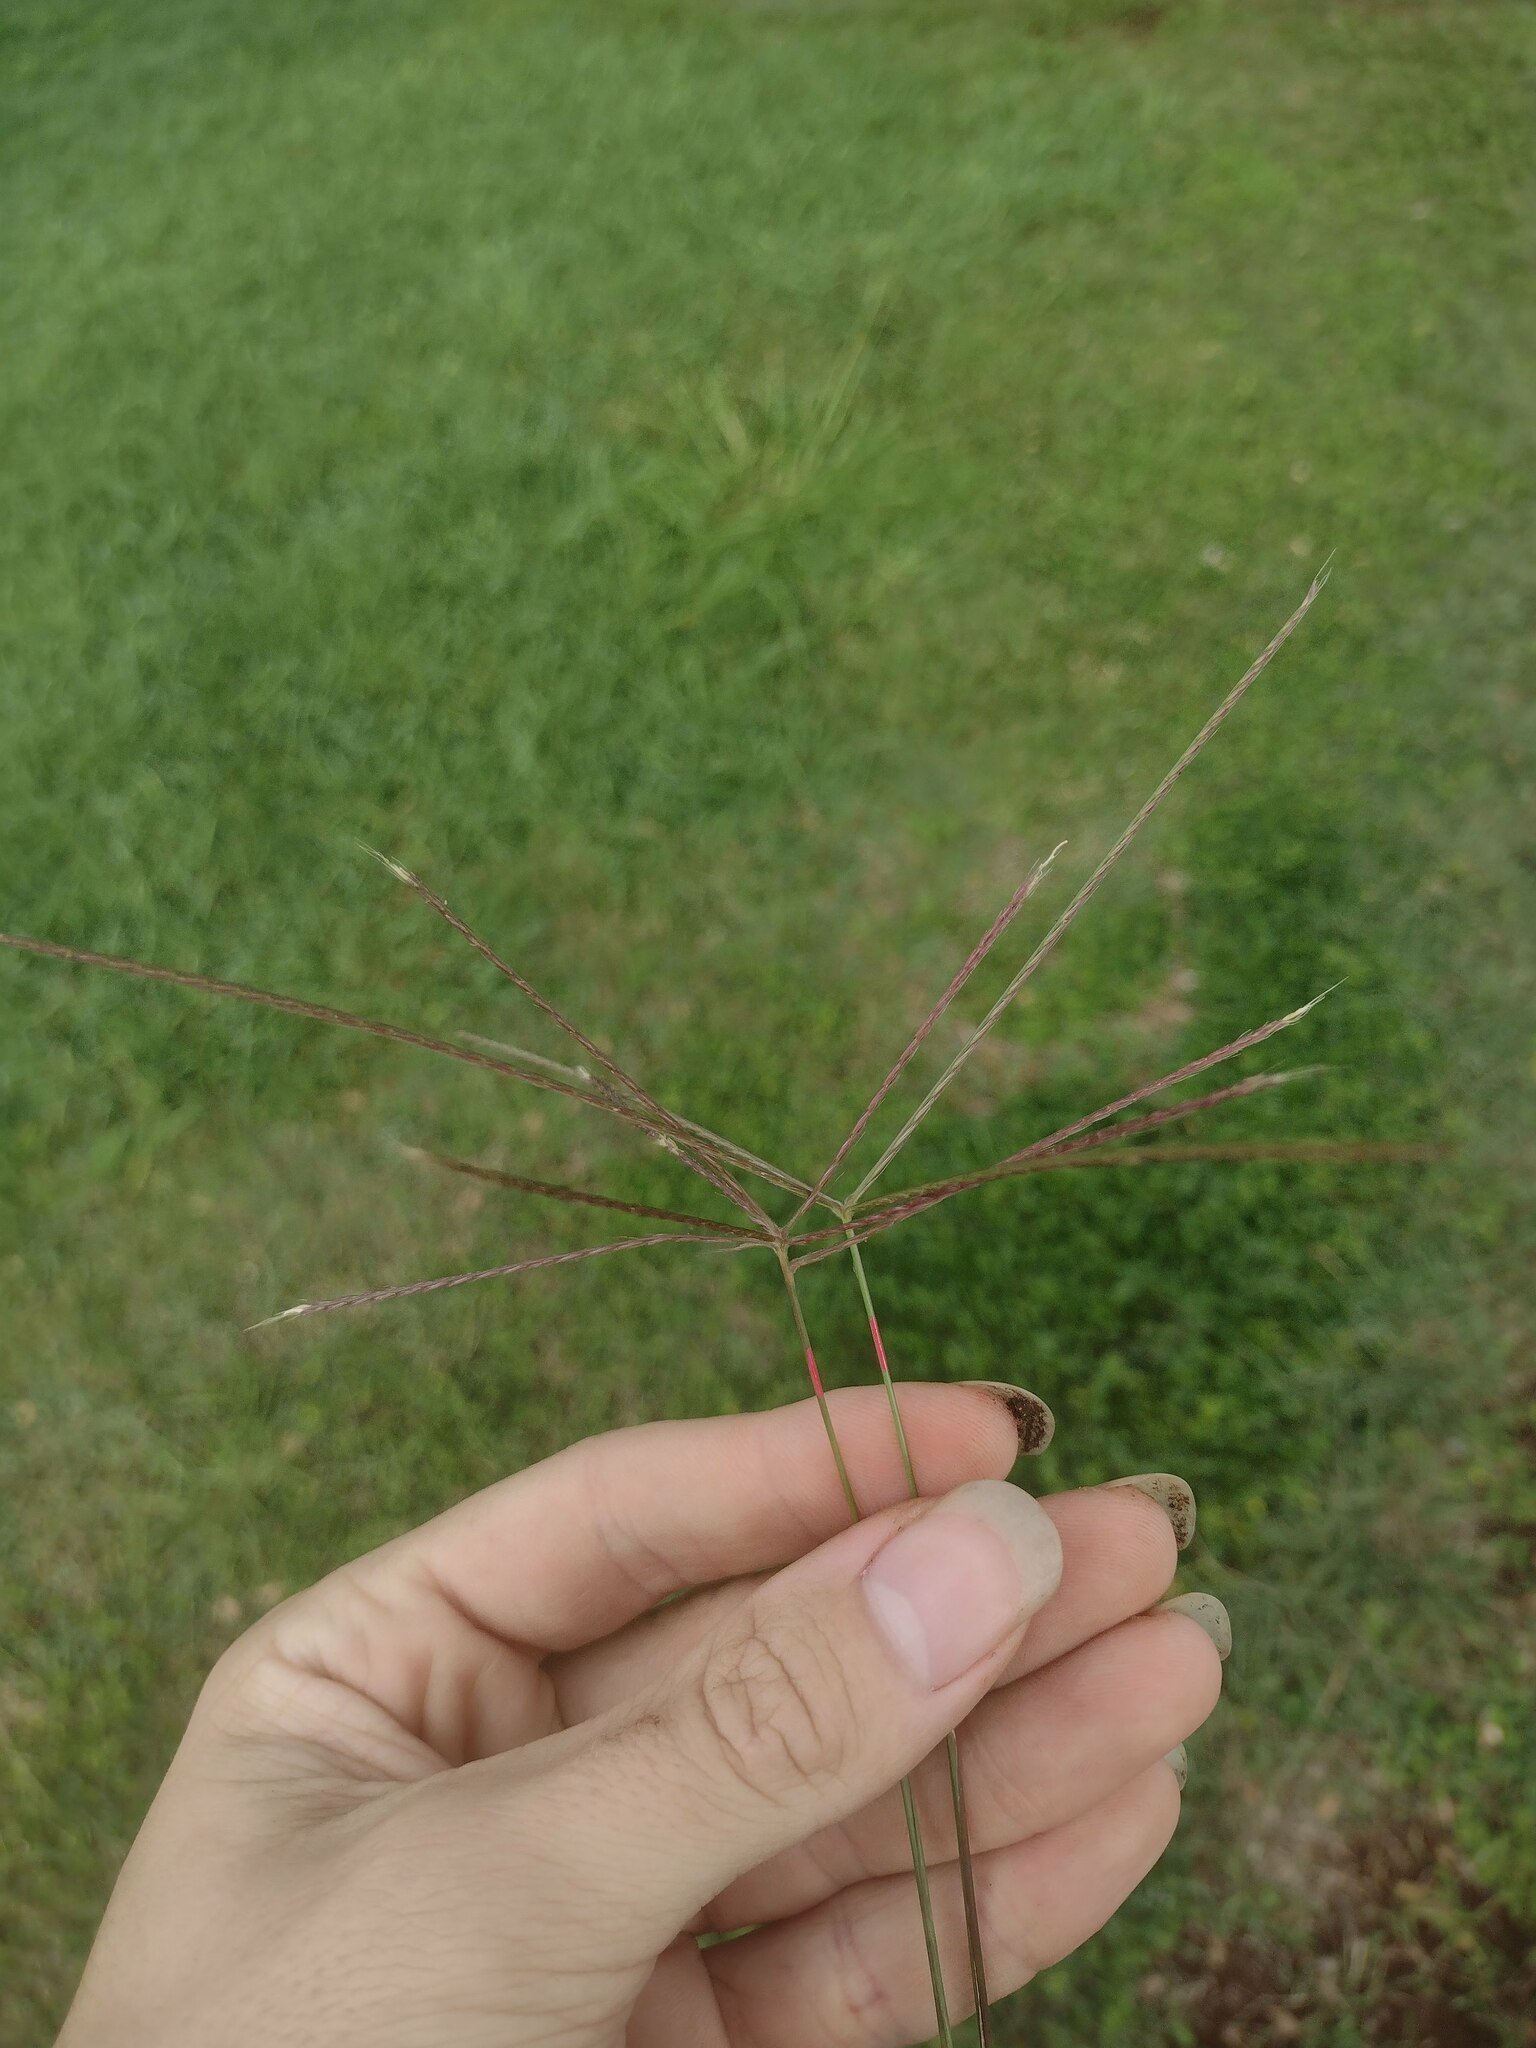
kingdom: Plantae
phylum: Tracheophyta
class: Liliopsida
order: Poales
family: Poaceae
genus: Chloris
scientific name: Chloris divaricata
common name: Spreading windmill grass
